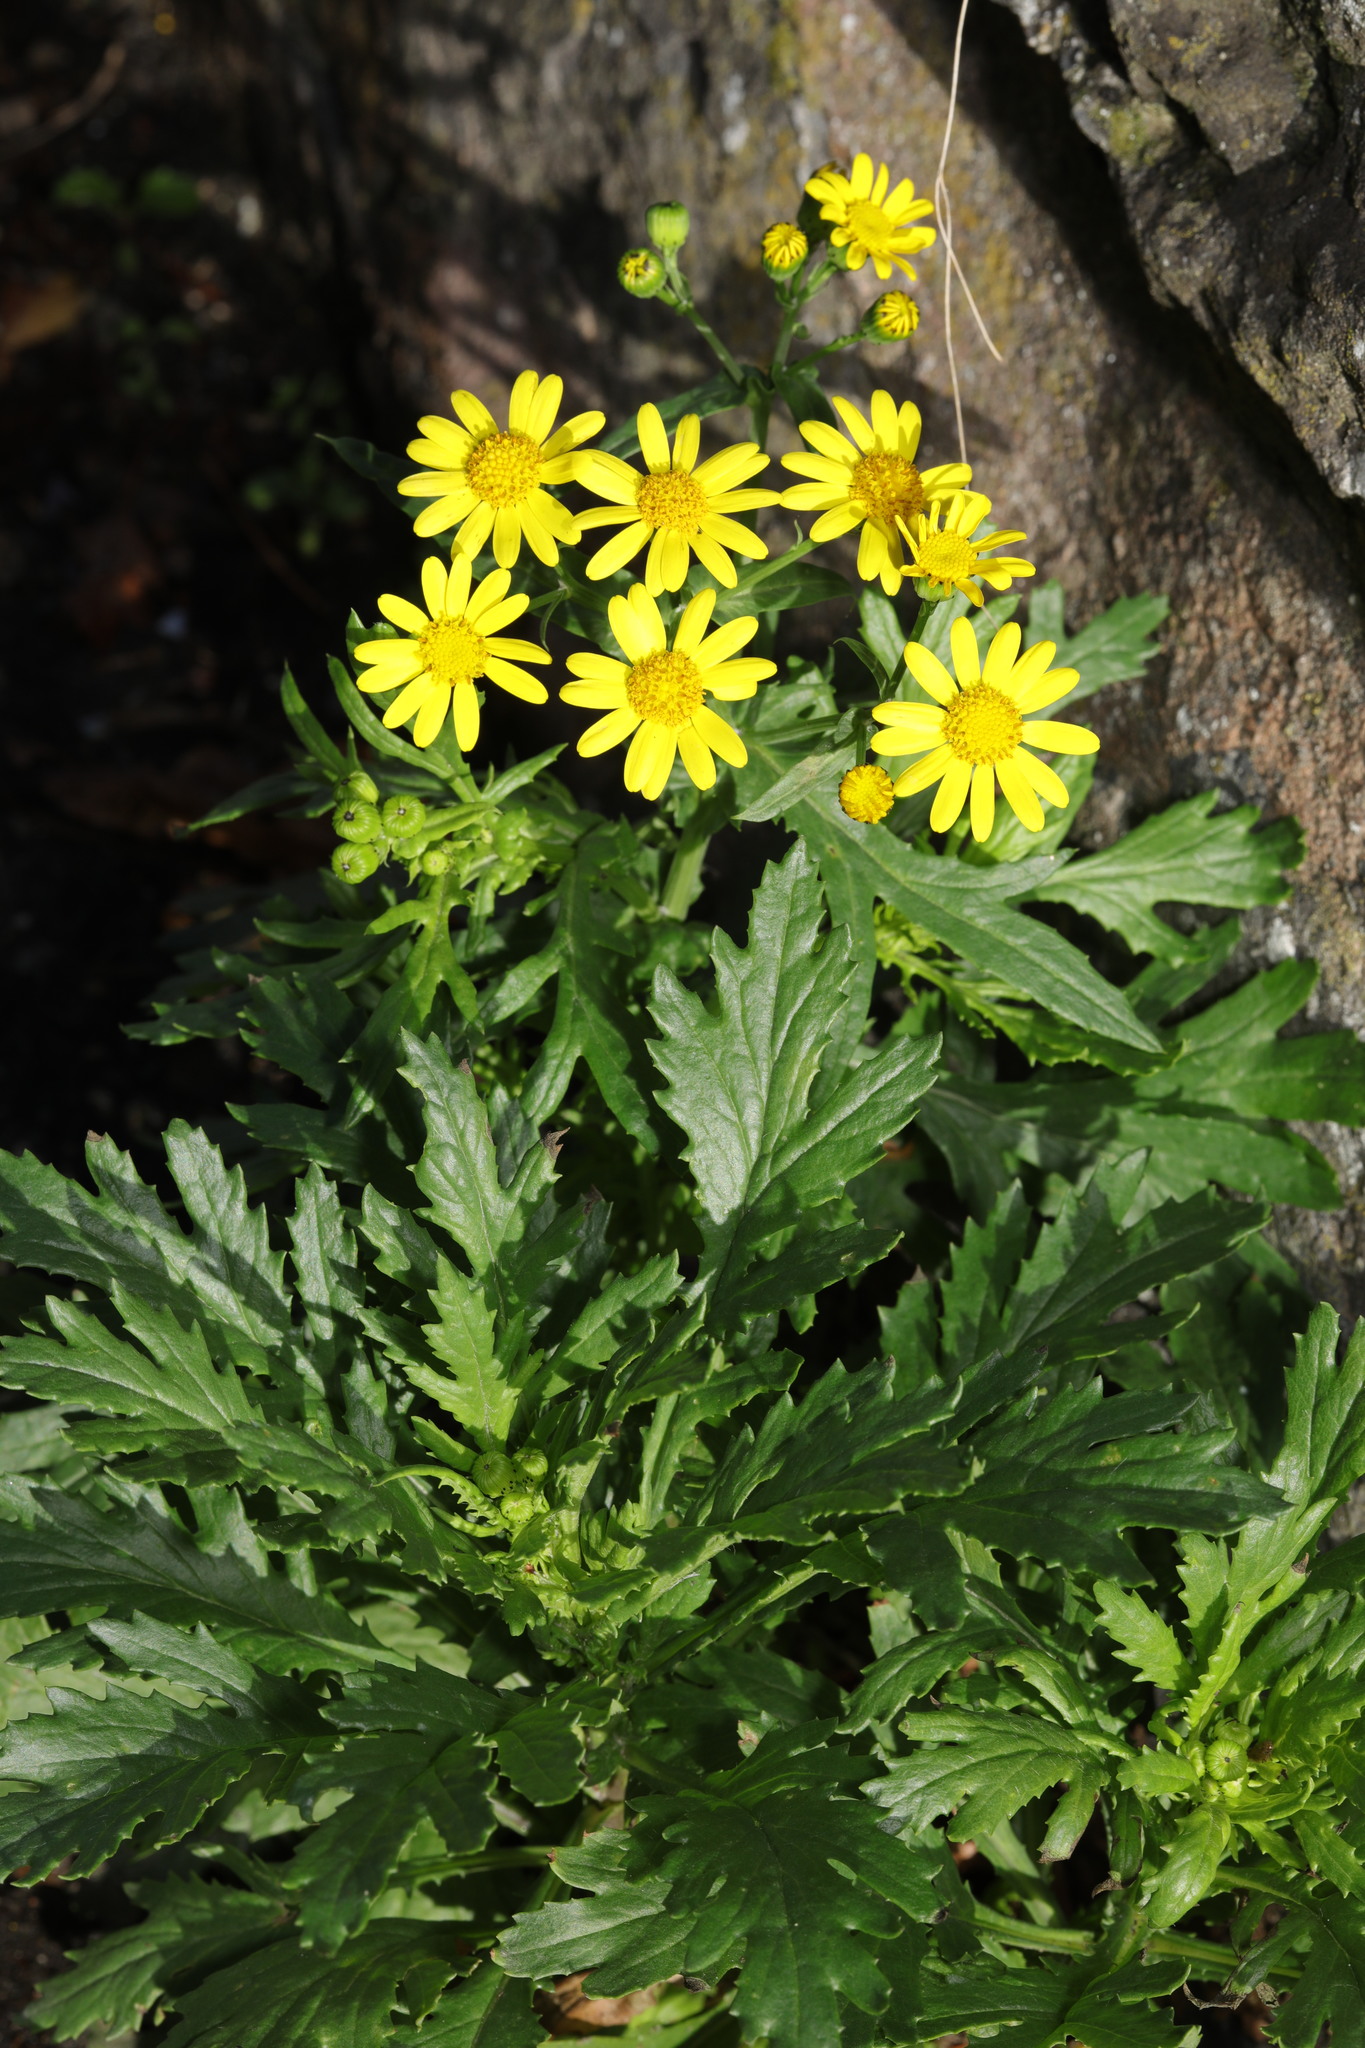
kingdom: Plantae
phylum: Tracheophyta
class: Magnoliopsida
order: Asterales
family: Asteraceae
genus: Senecio
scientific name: Senecio squalidus
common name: Oxford ragwort
